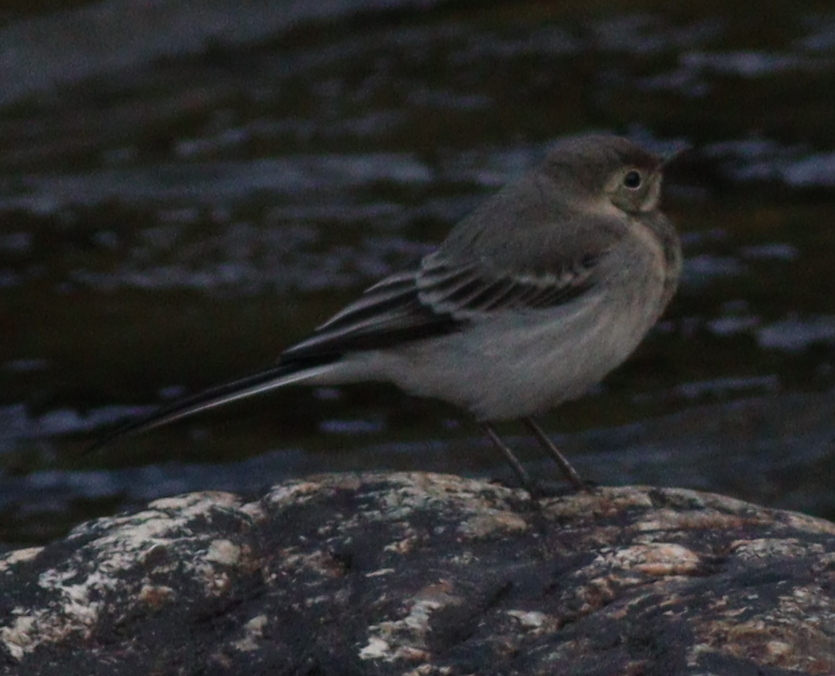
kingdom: Animalia
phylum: Chordata
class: Aves
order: Passeriformes
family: Motacillidae
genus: Motacilla
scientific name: Motacilla alba
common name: White wagtail
